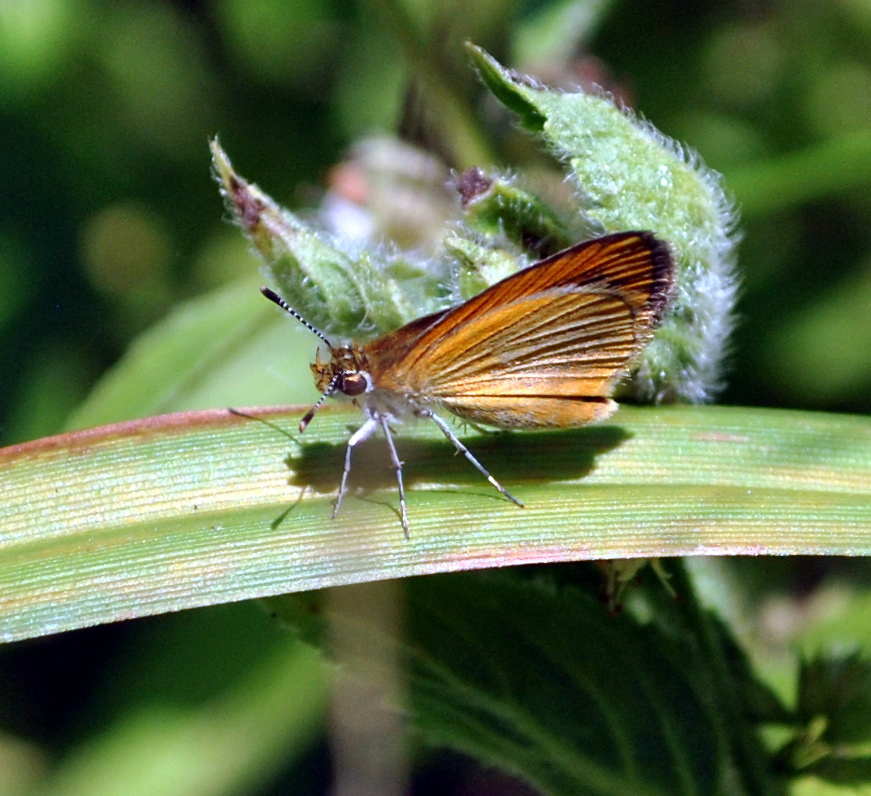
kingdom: Animalia
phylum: Arthropoda
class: Insecta
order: Lepidoptera
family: Hesperiidae
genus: Ancyloxypha
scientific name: Ancyloxypha numitor
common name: Least skipper
